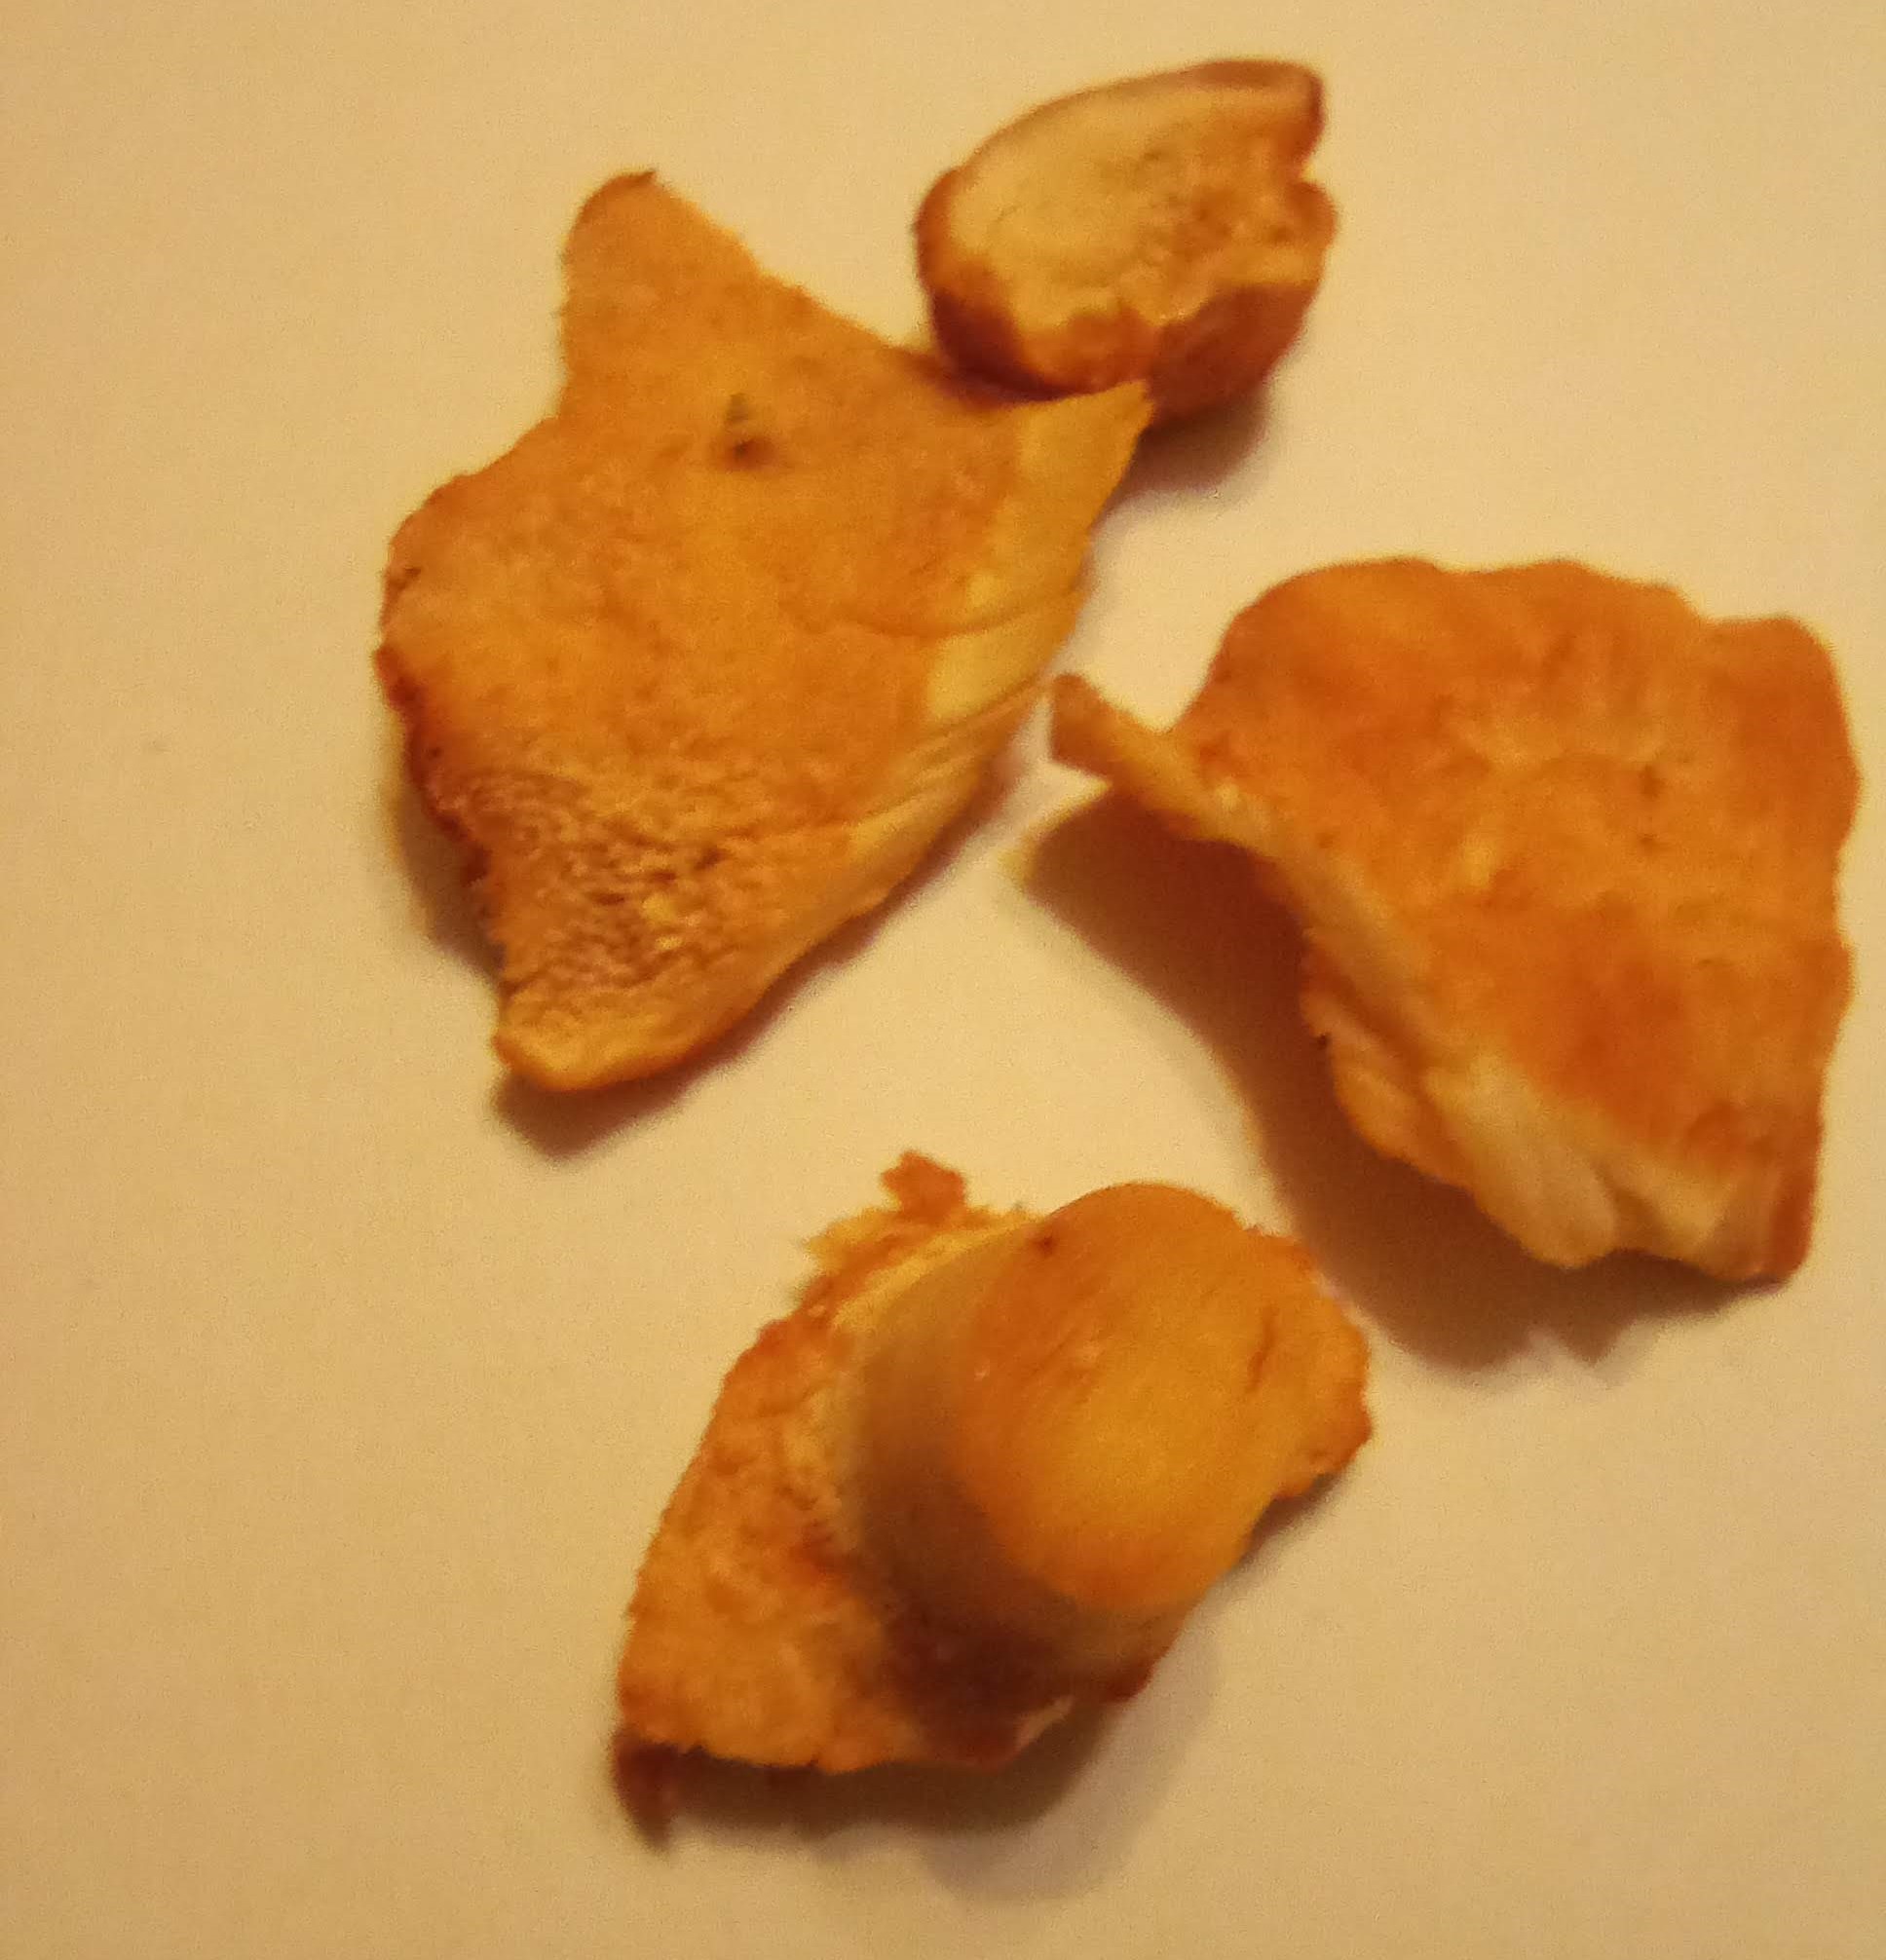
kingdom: Fungi
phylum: Basidiomycota
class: Agaricomycetes
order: Cantharellales
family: Hydnaceae
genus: Hydnum
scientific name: Hydnum rufescens
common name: Terracotta hedgehog
